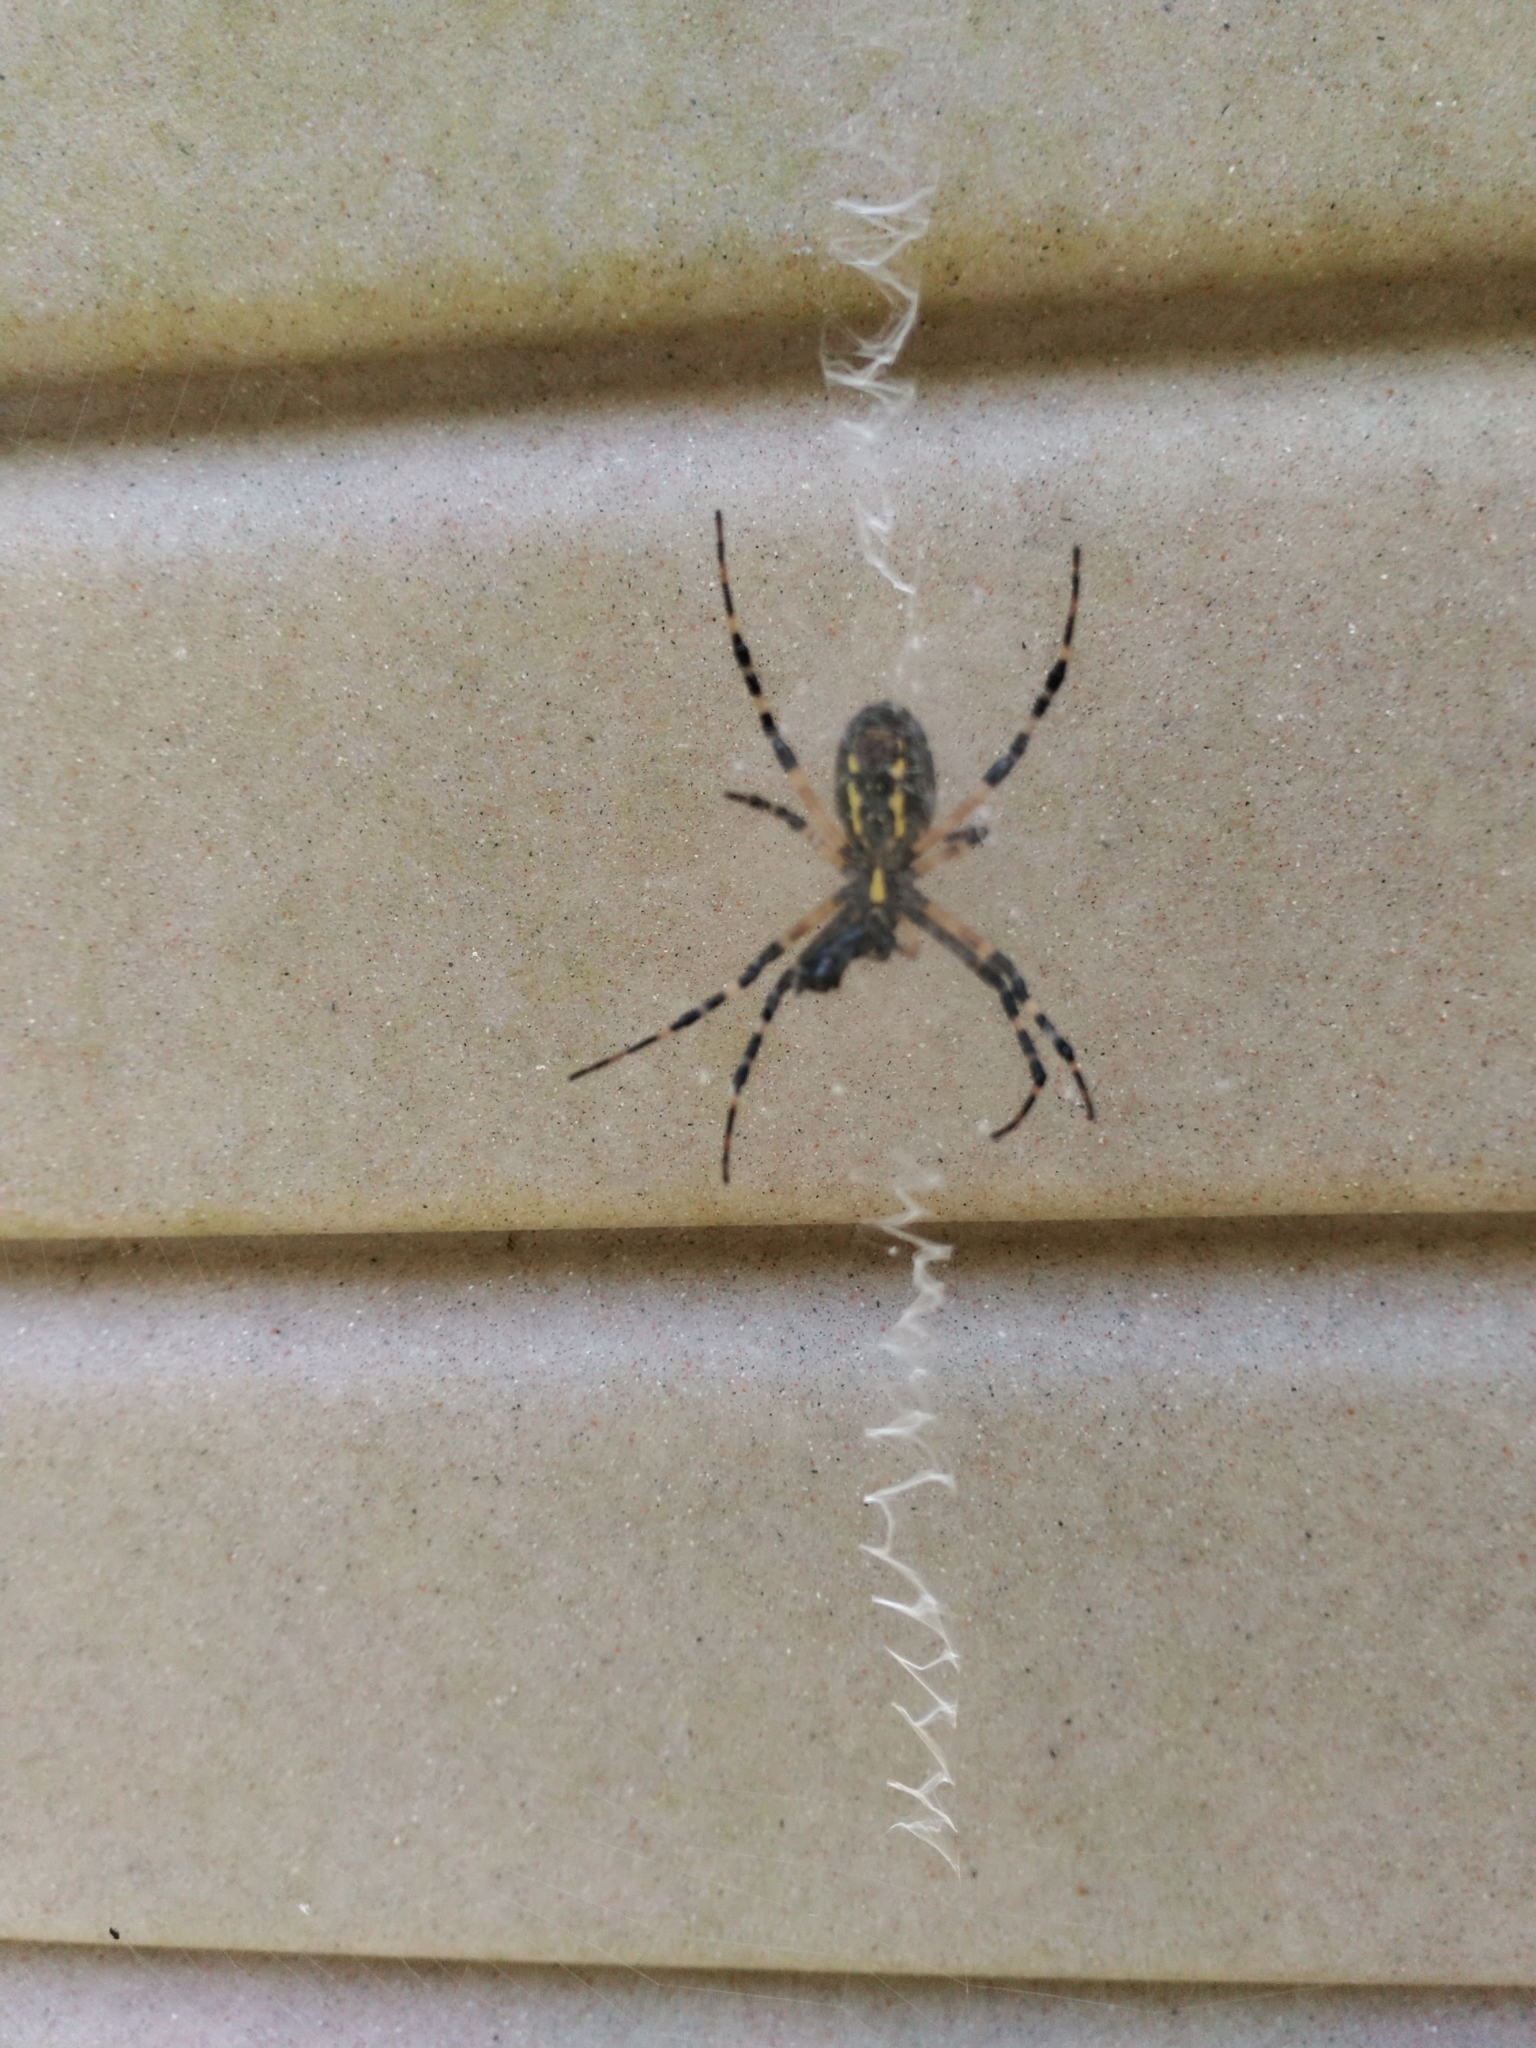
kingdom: Animalia
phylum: Arthropoda
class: Arachnida
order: Araneae
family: Araneidae
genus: Argiope
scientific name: Argiope aurantia
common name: Orb weavers
